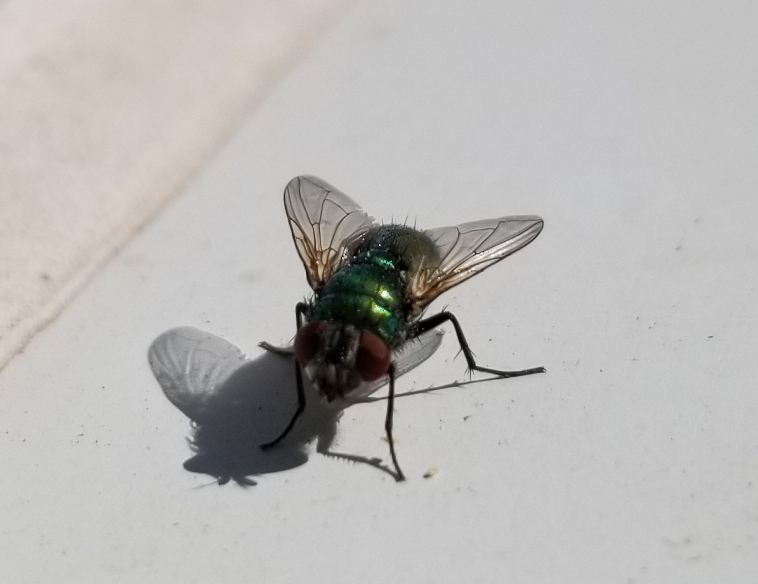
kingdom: Animalia
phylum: Arthropoda
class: Insecta
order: Diptera
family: Calliphoridae
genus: Lucilia
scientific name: Lucilia sericata
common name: Blow fly
